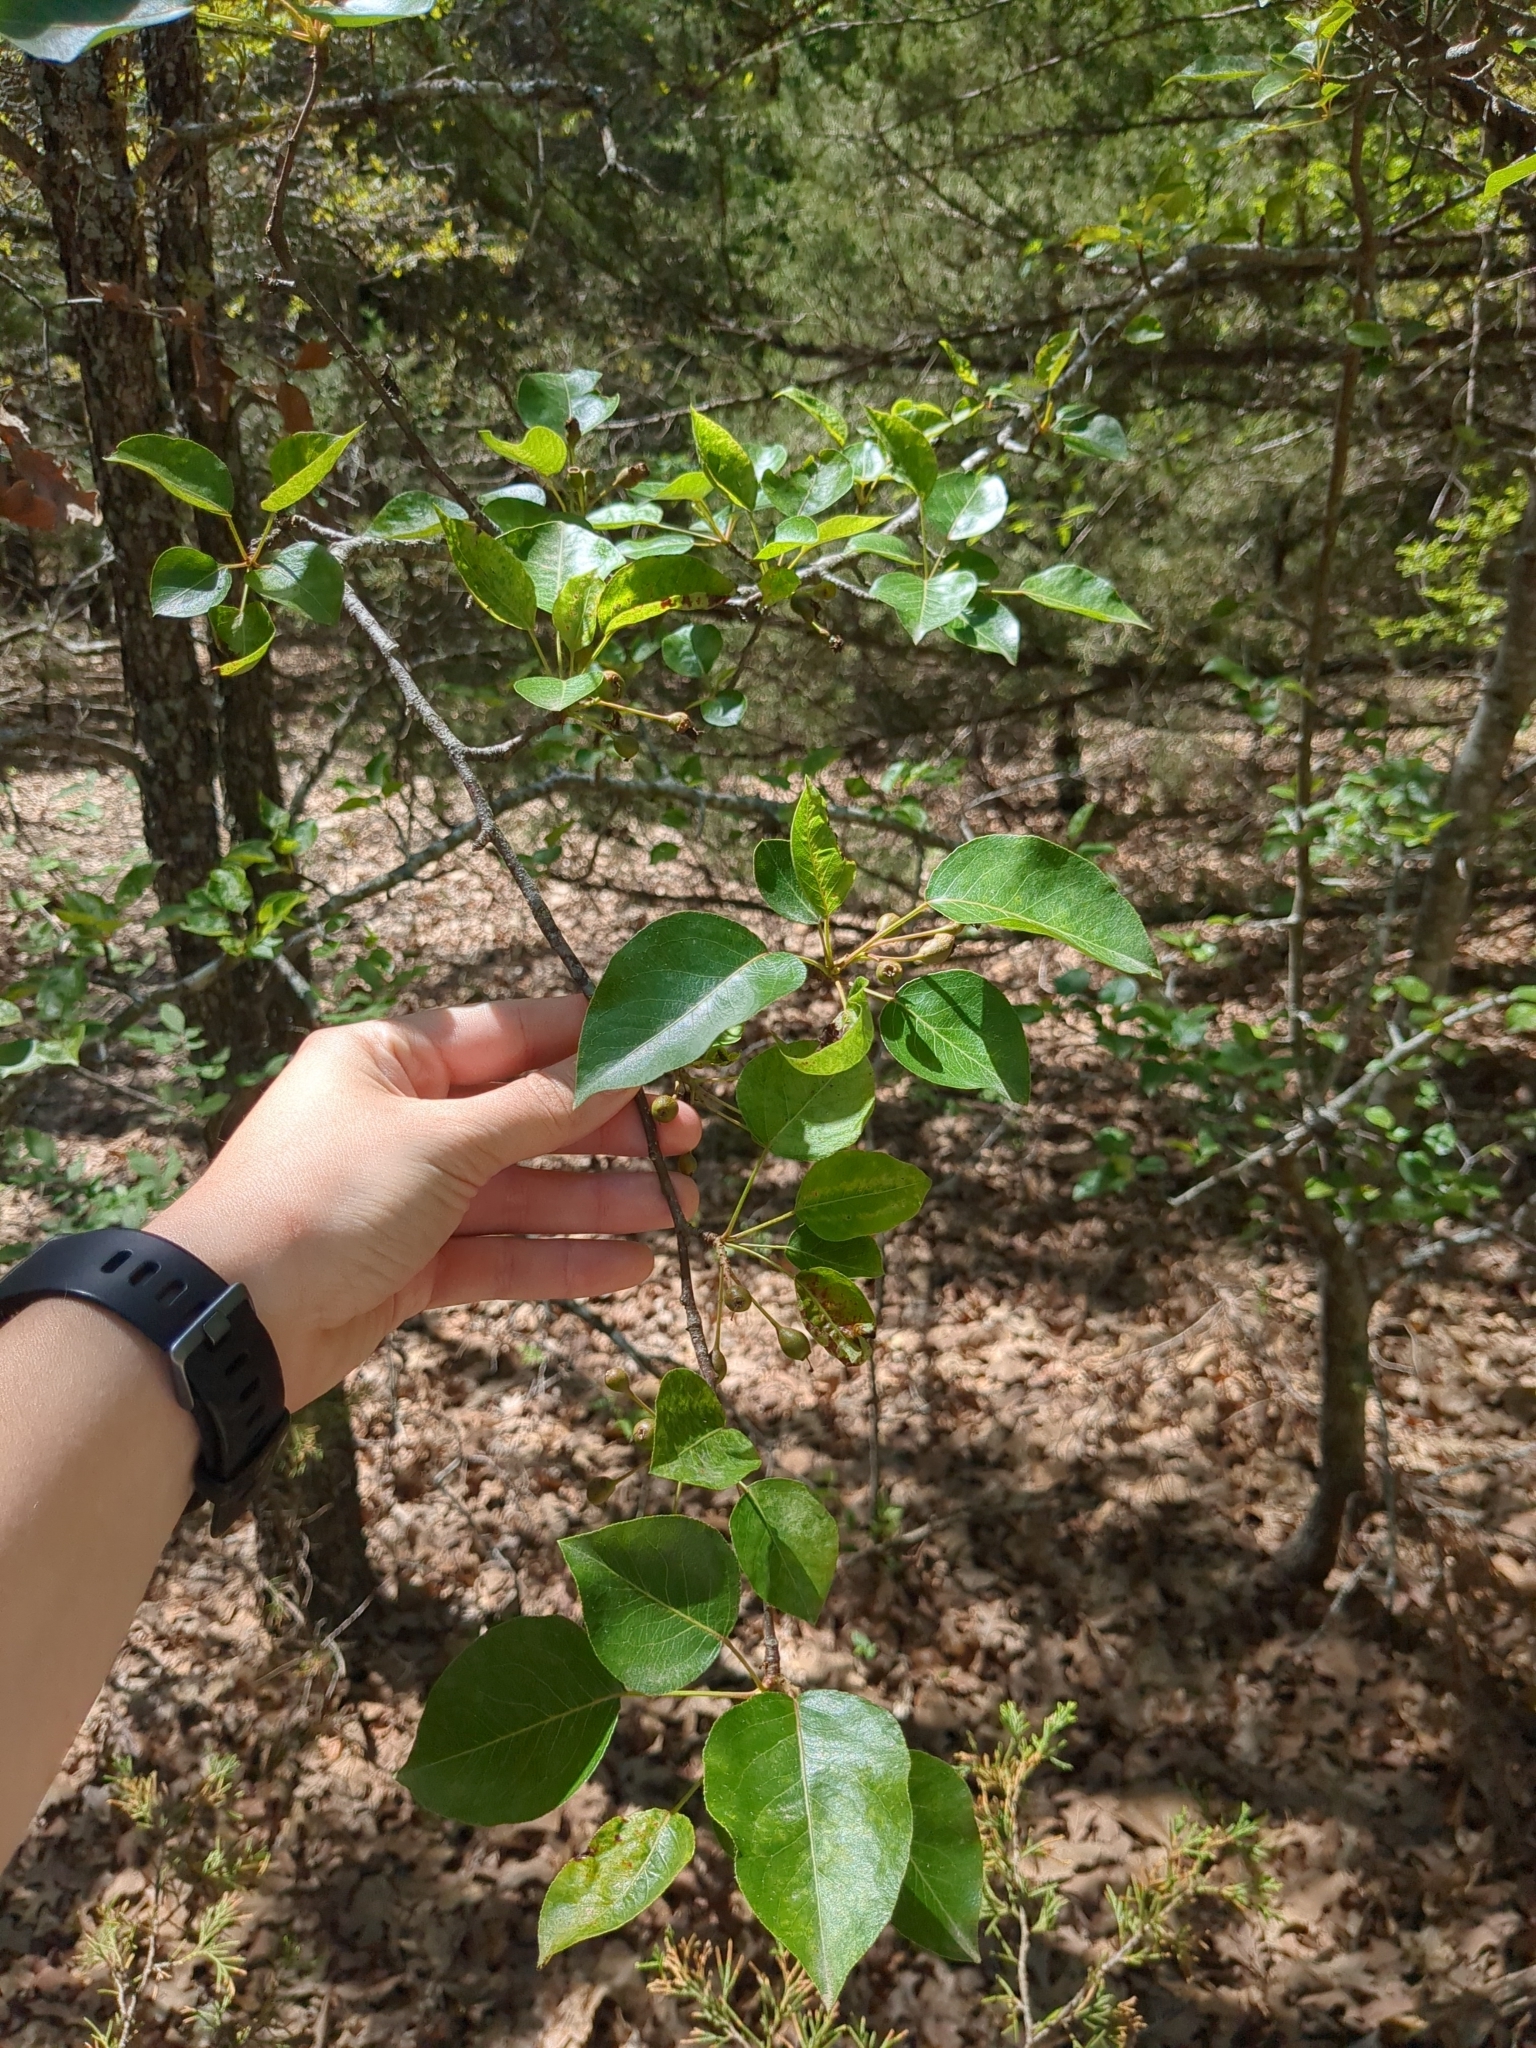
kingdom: Plantae
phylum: Tracheophyta
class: Magnoliopsida
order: Rosales
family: Rosaceae
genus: Pyrus
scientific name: Pyrus calleryana
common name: Callery pear
